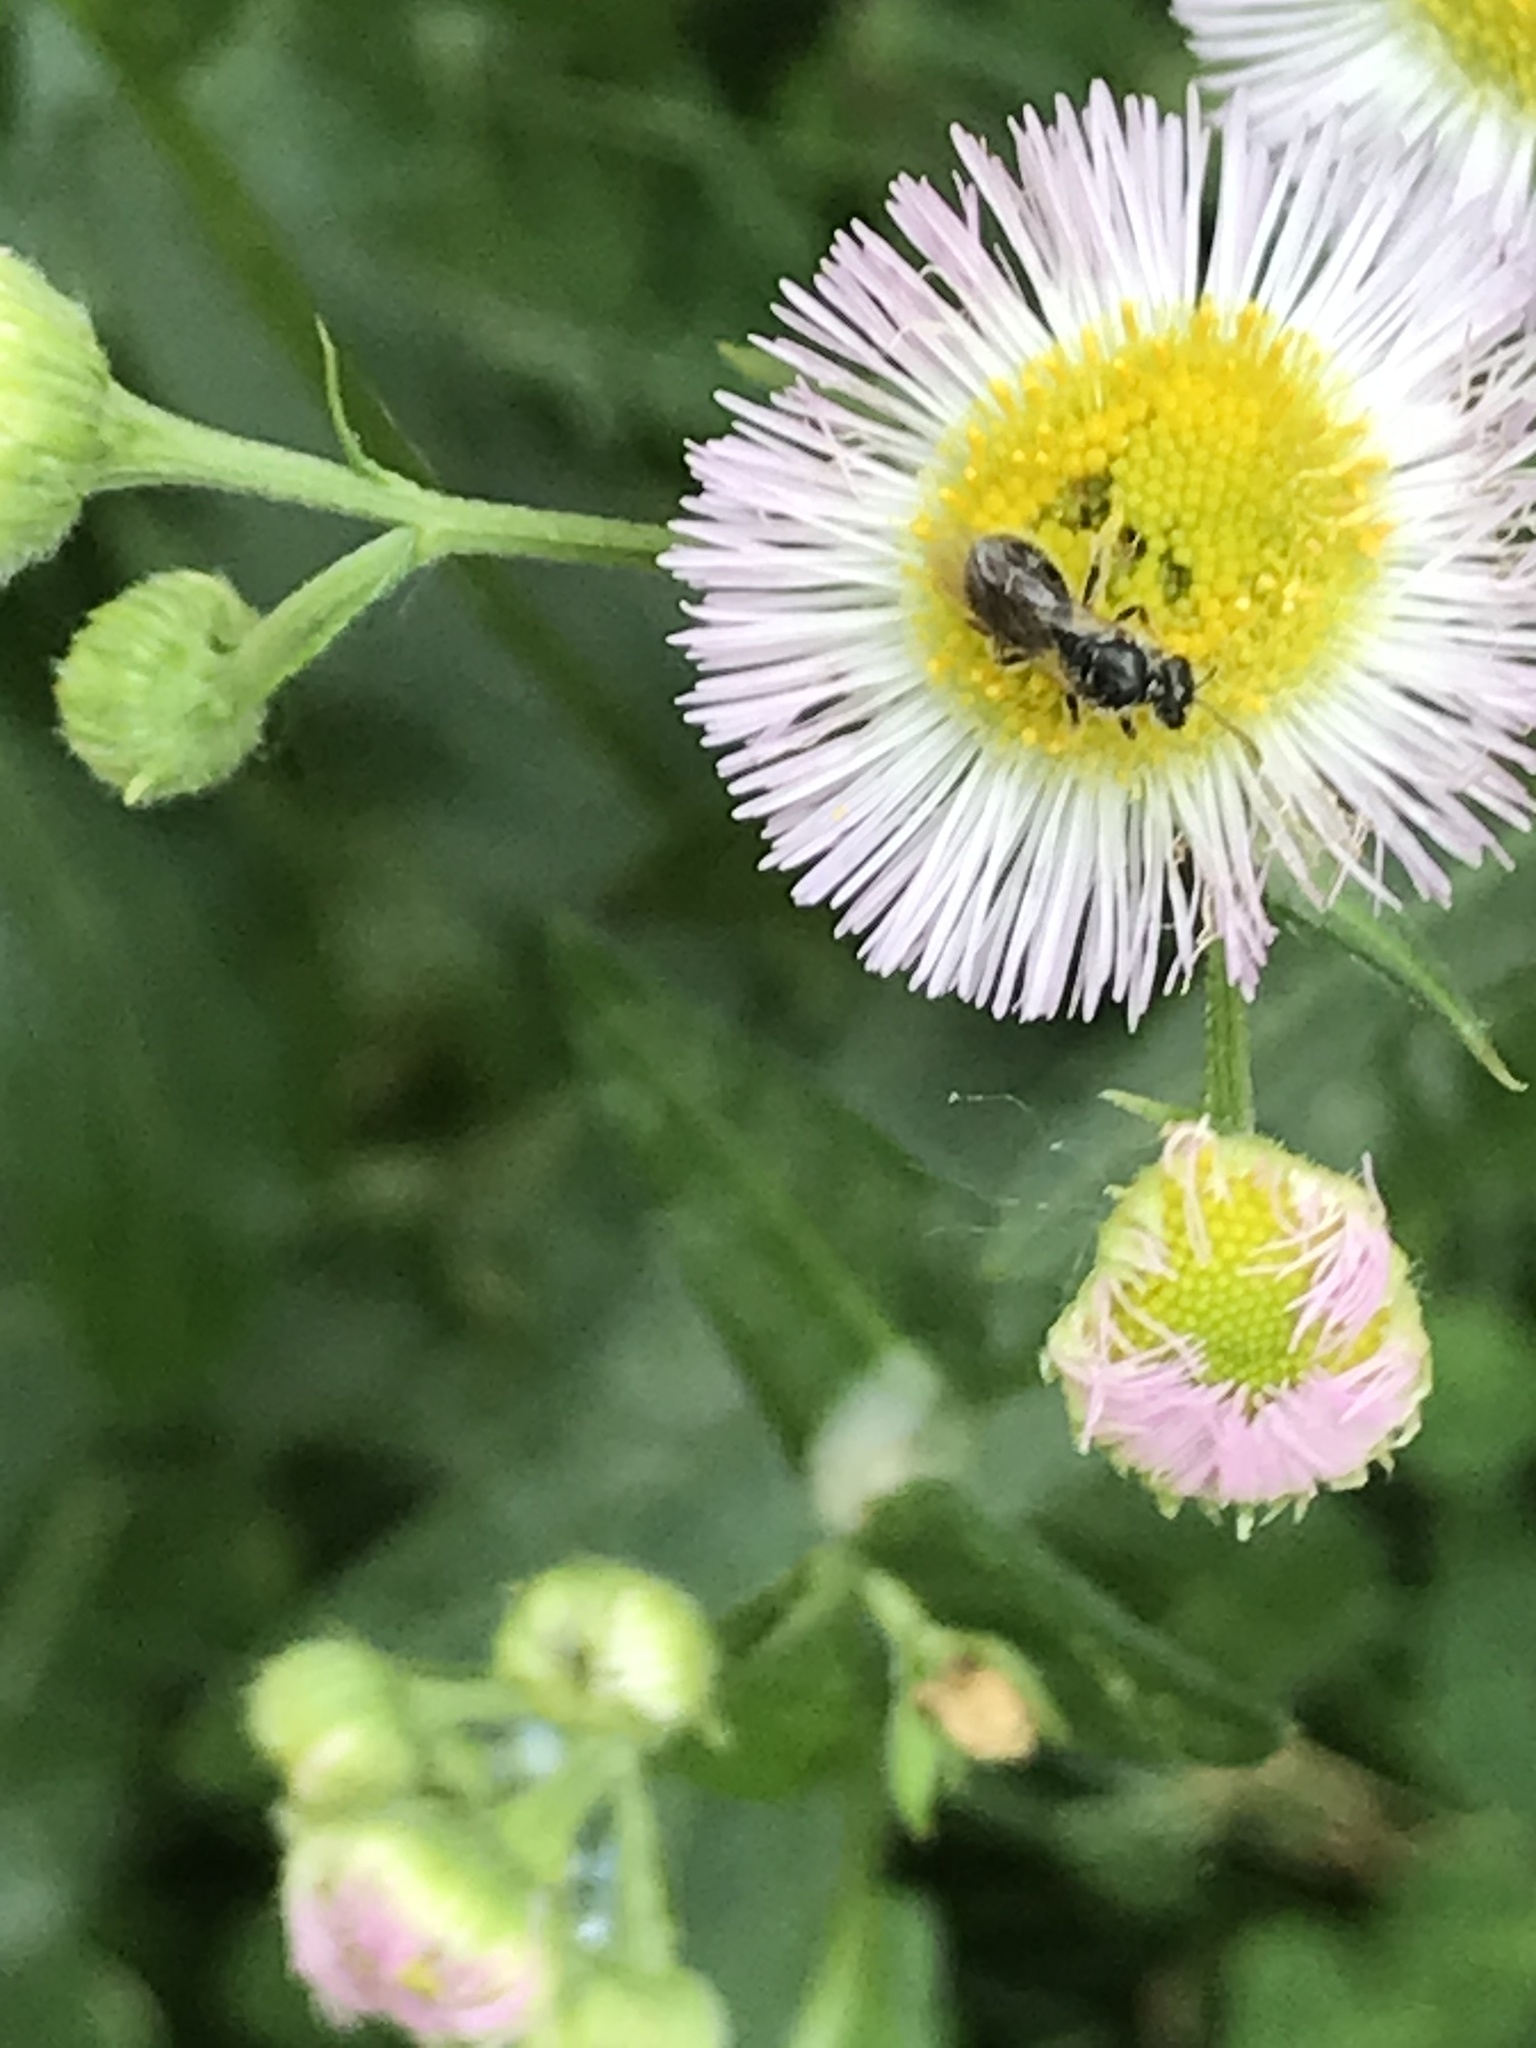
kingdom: Plantae
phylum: Tracheophyta
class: Magnoliopsida
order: Asterales
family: Asteraceae
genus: Erigeron
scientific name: Erigeron philadelphicus
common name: Robin's-plantain
